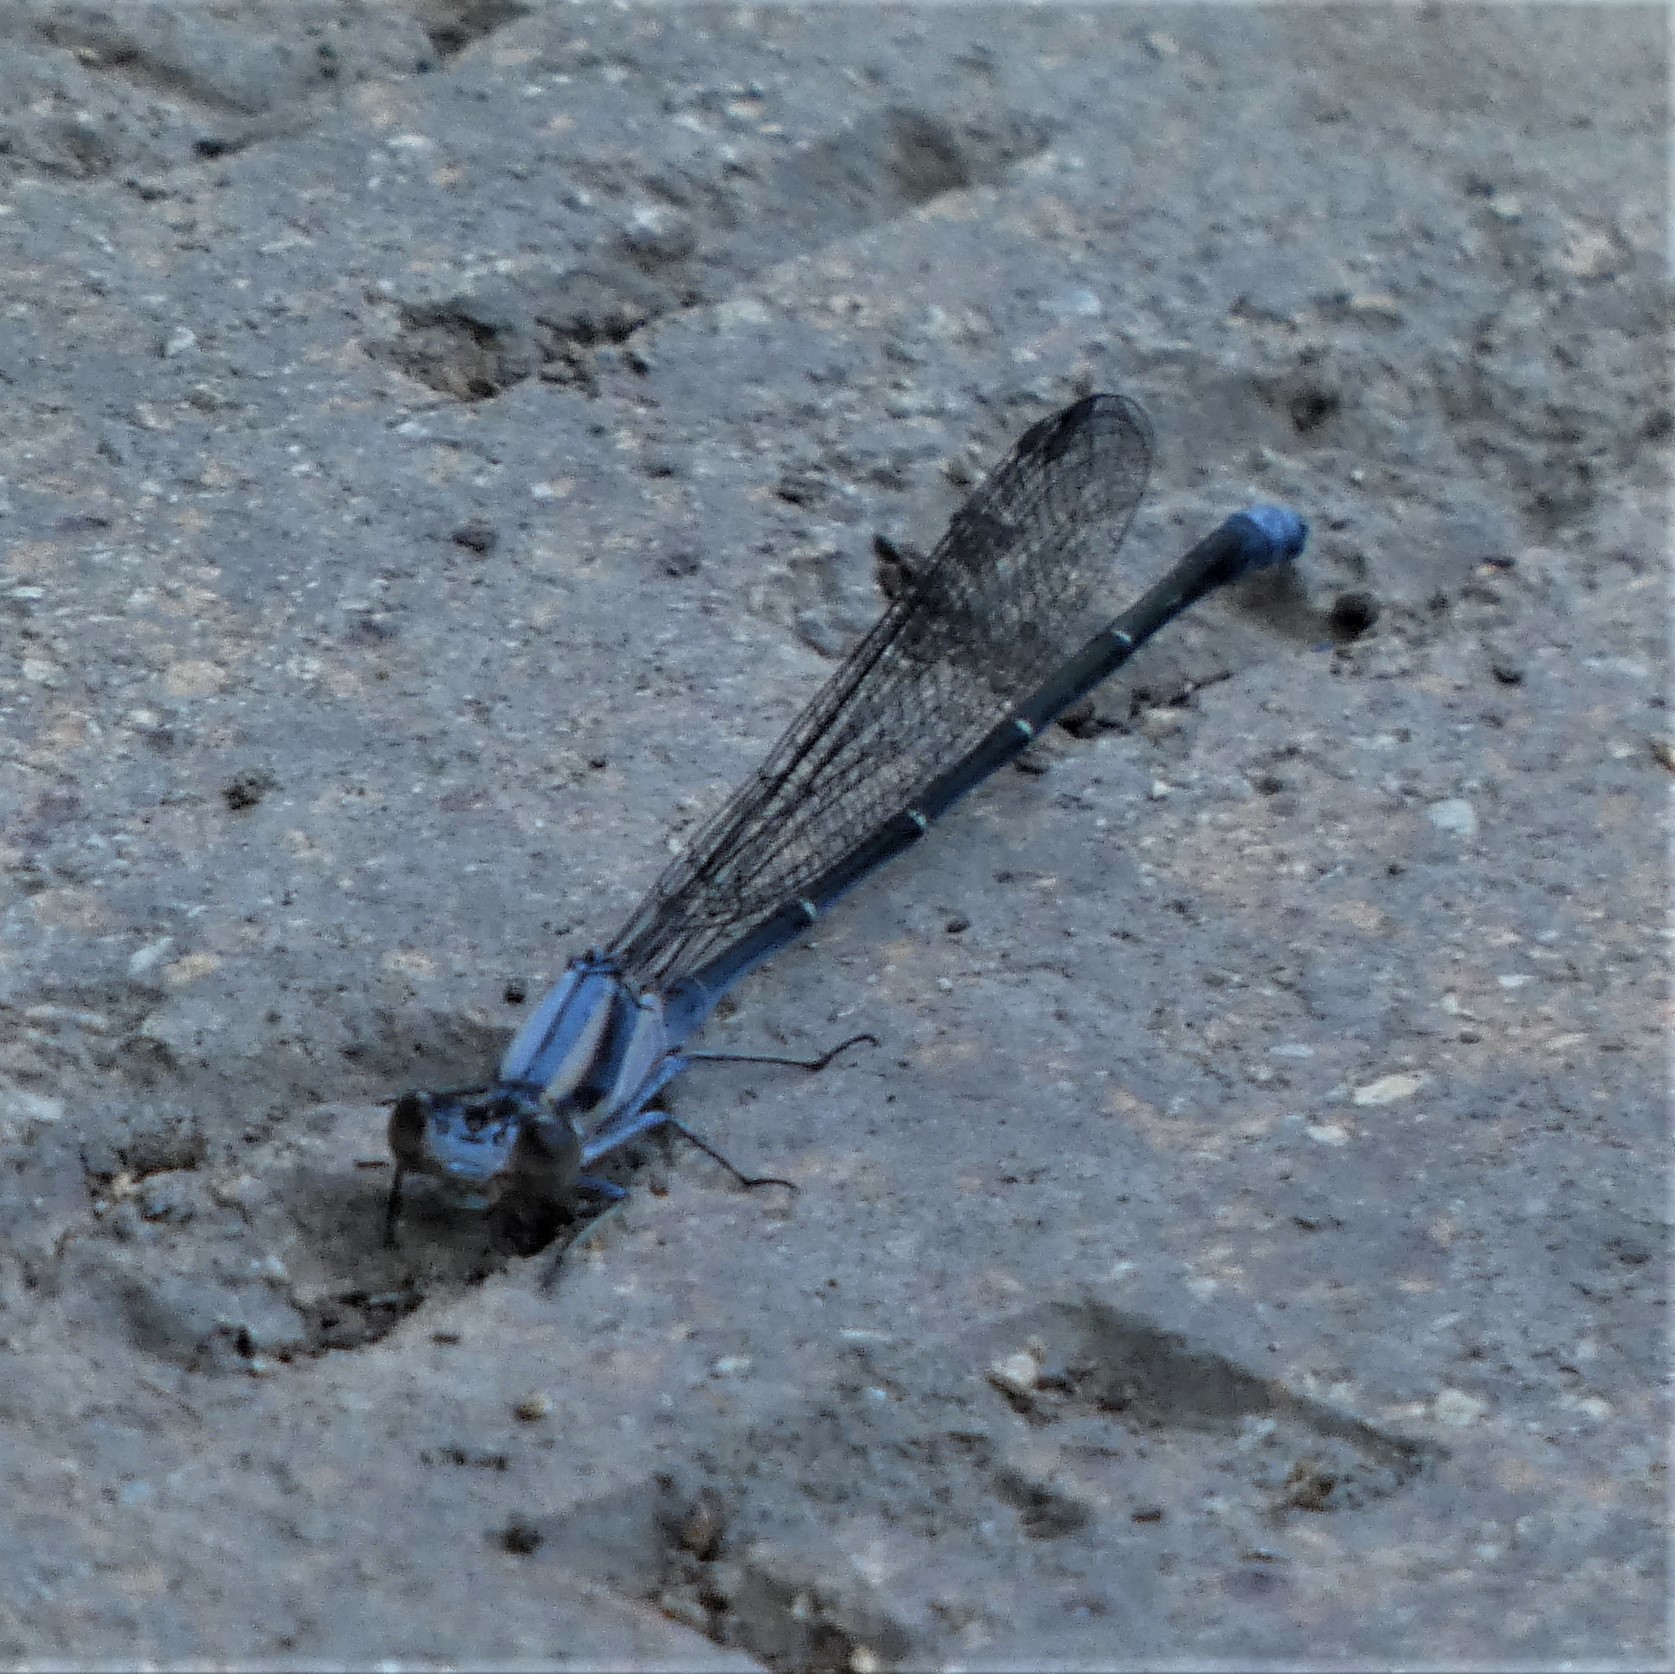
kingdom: Animalia
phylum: Arthropoda
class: Insecta
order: Odonata
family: Coenagrionidae
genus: Argia
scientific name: Argia moesta
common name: Powdered dancer
